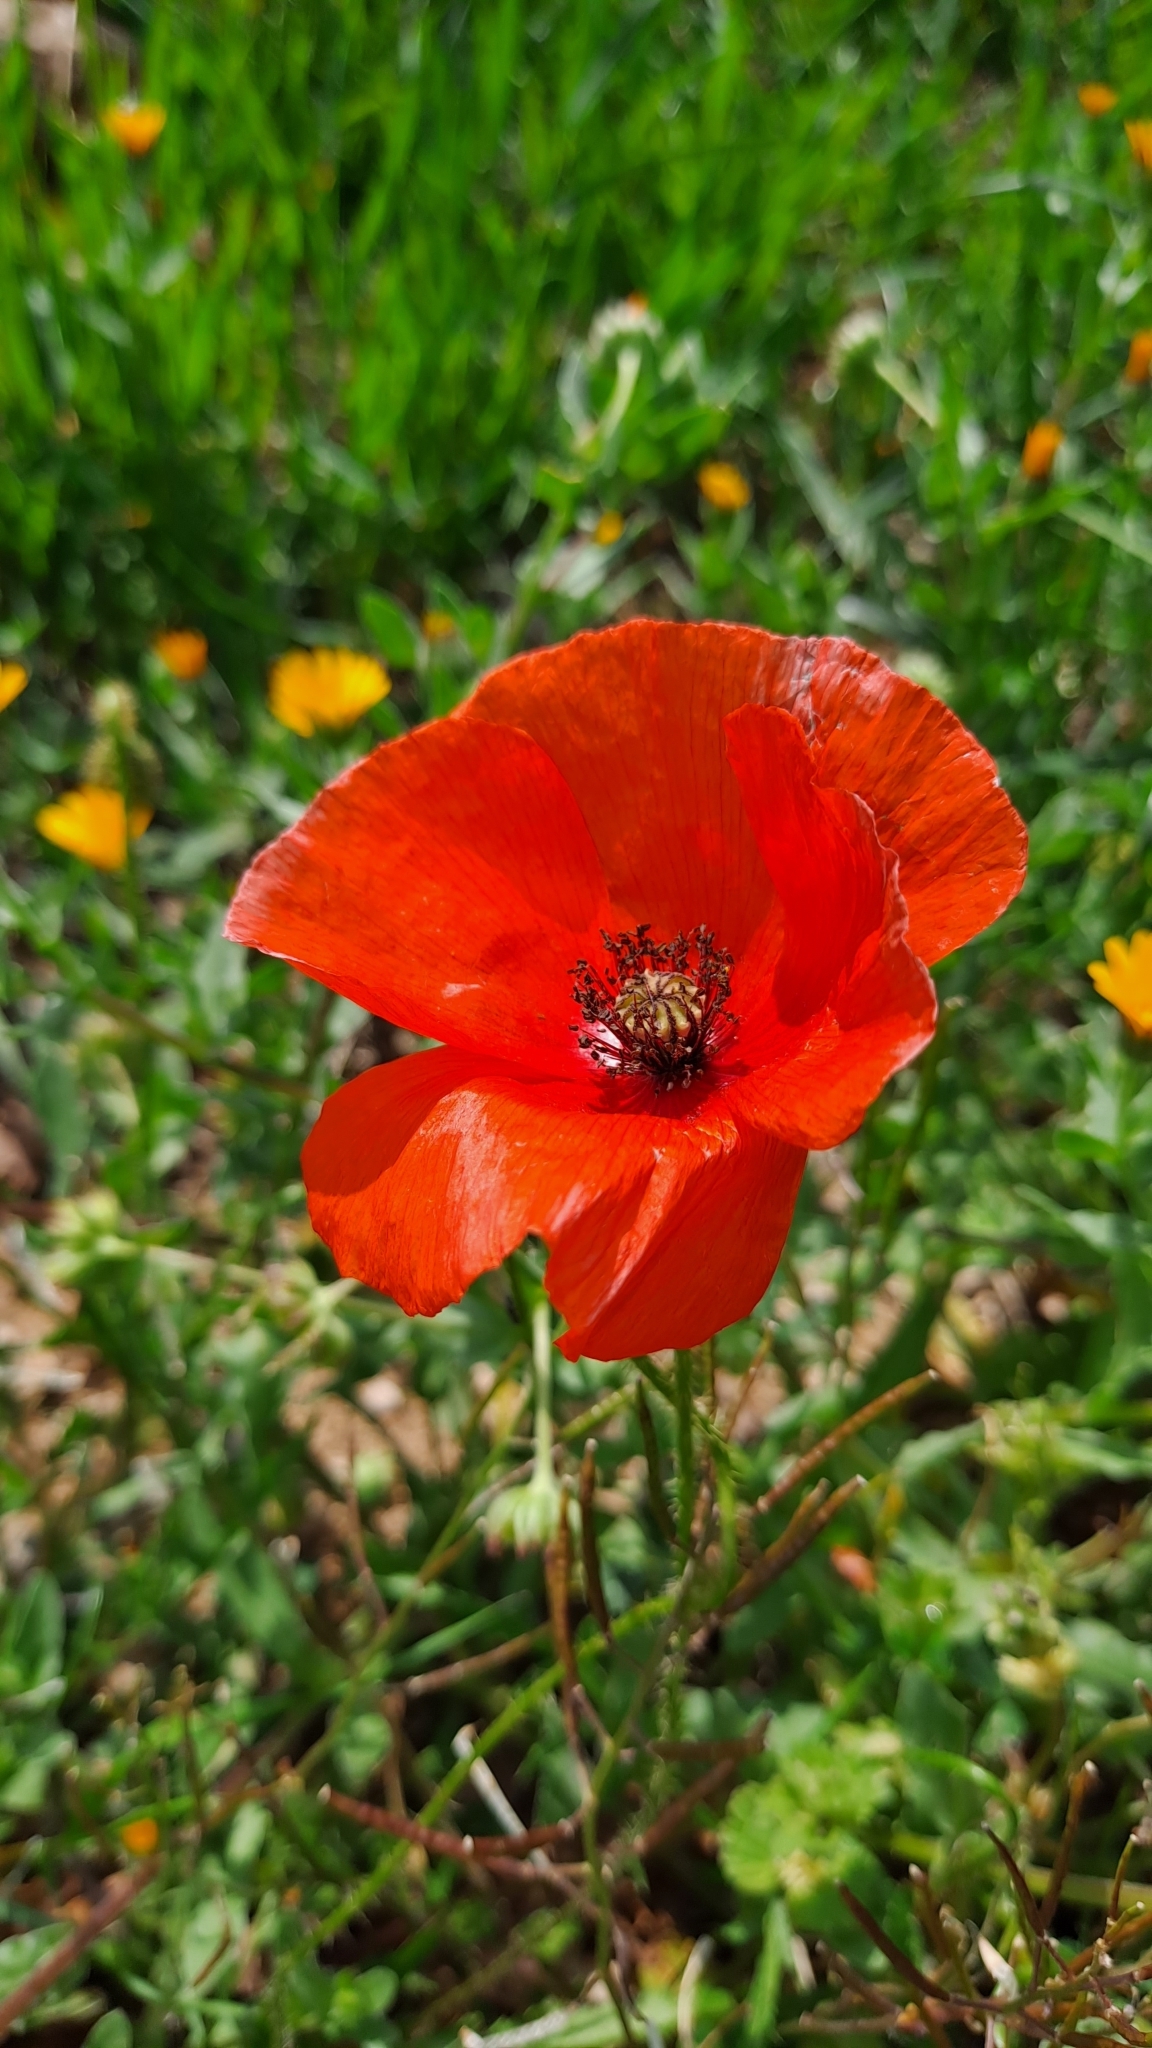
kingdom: Plantae
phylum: Tracheophyta
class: Magnoliopsida
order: Ranunculales
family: Papaveraceae
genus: Papaver
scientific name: Papaver rhoeas
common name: Corn poppy
